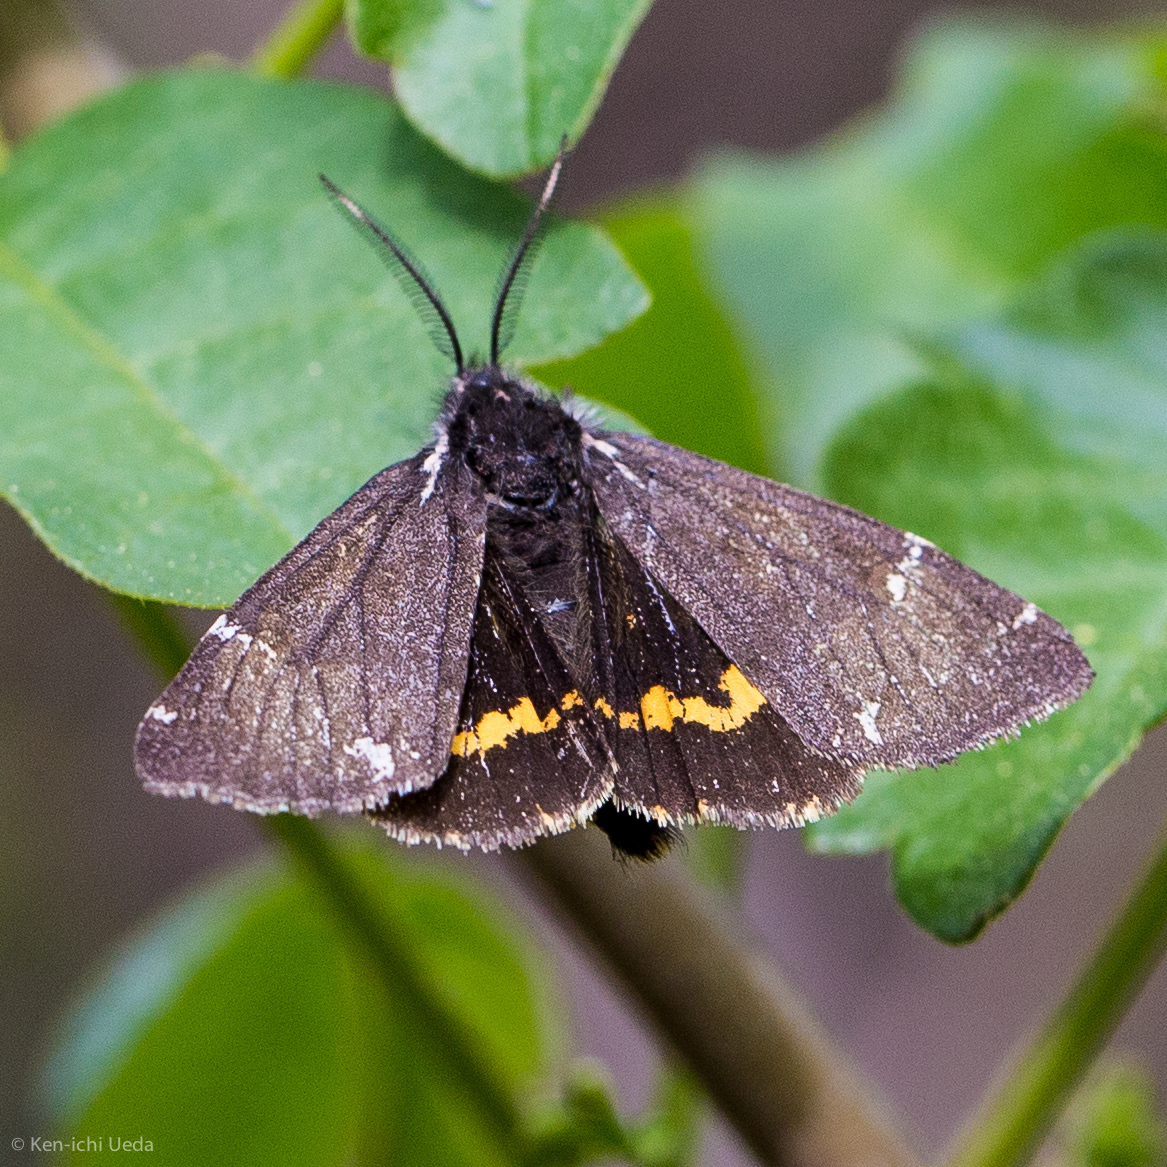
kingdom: Animalia
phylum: Arthropoda
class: Insecta
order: Lepidoptera
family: Erebidae
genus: Leptarctia
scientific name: Leptarctia californiae
